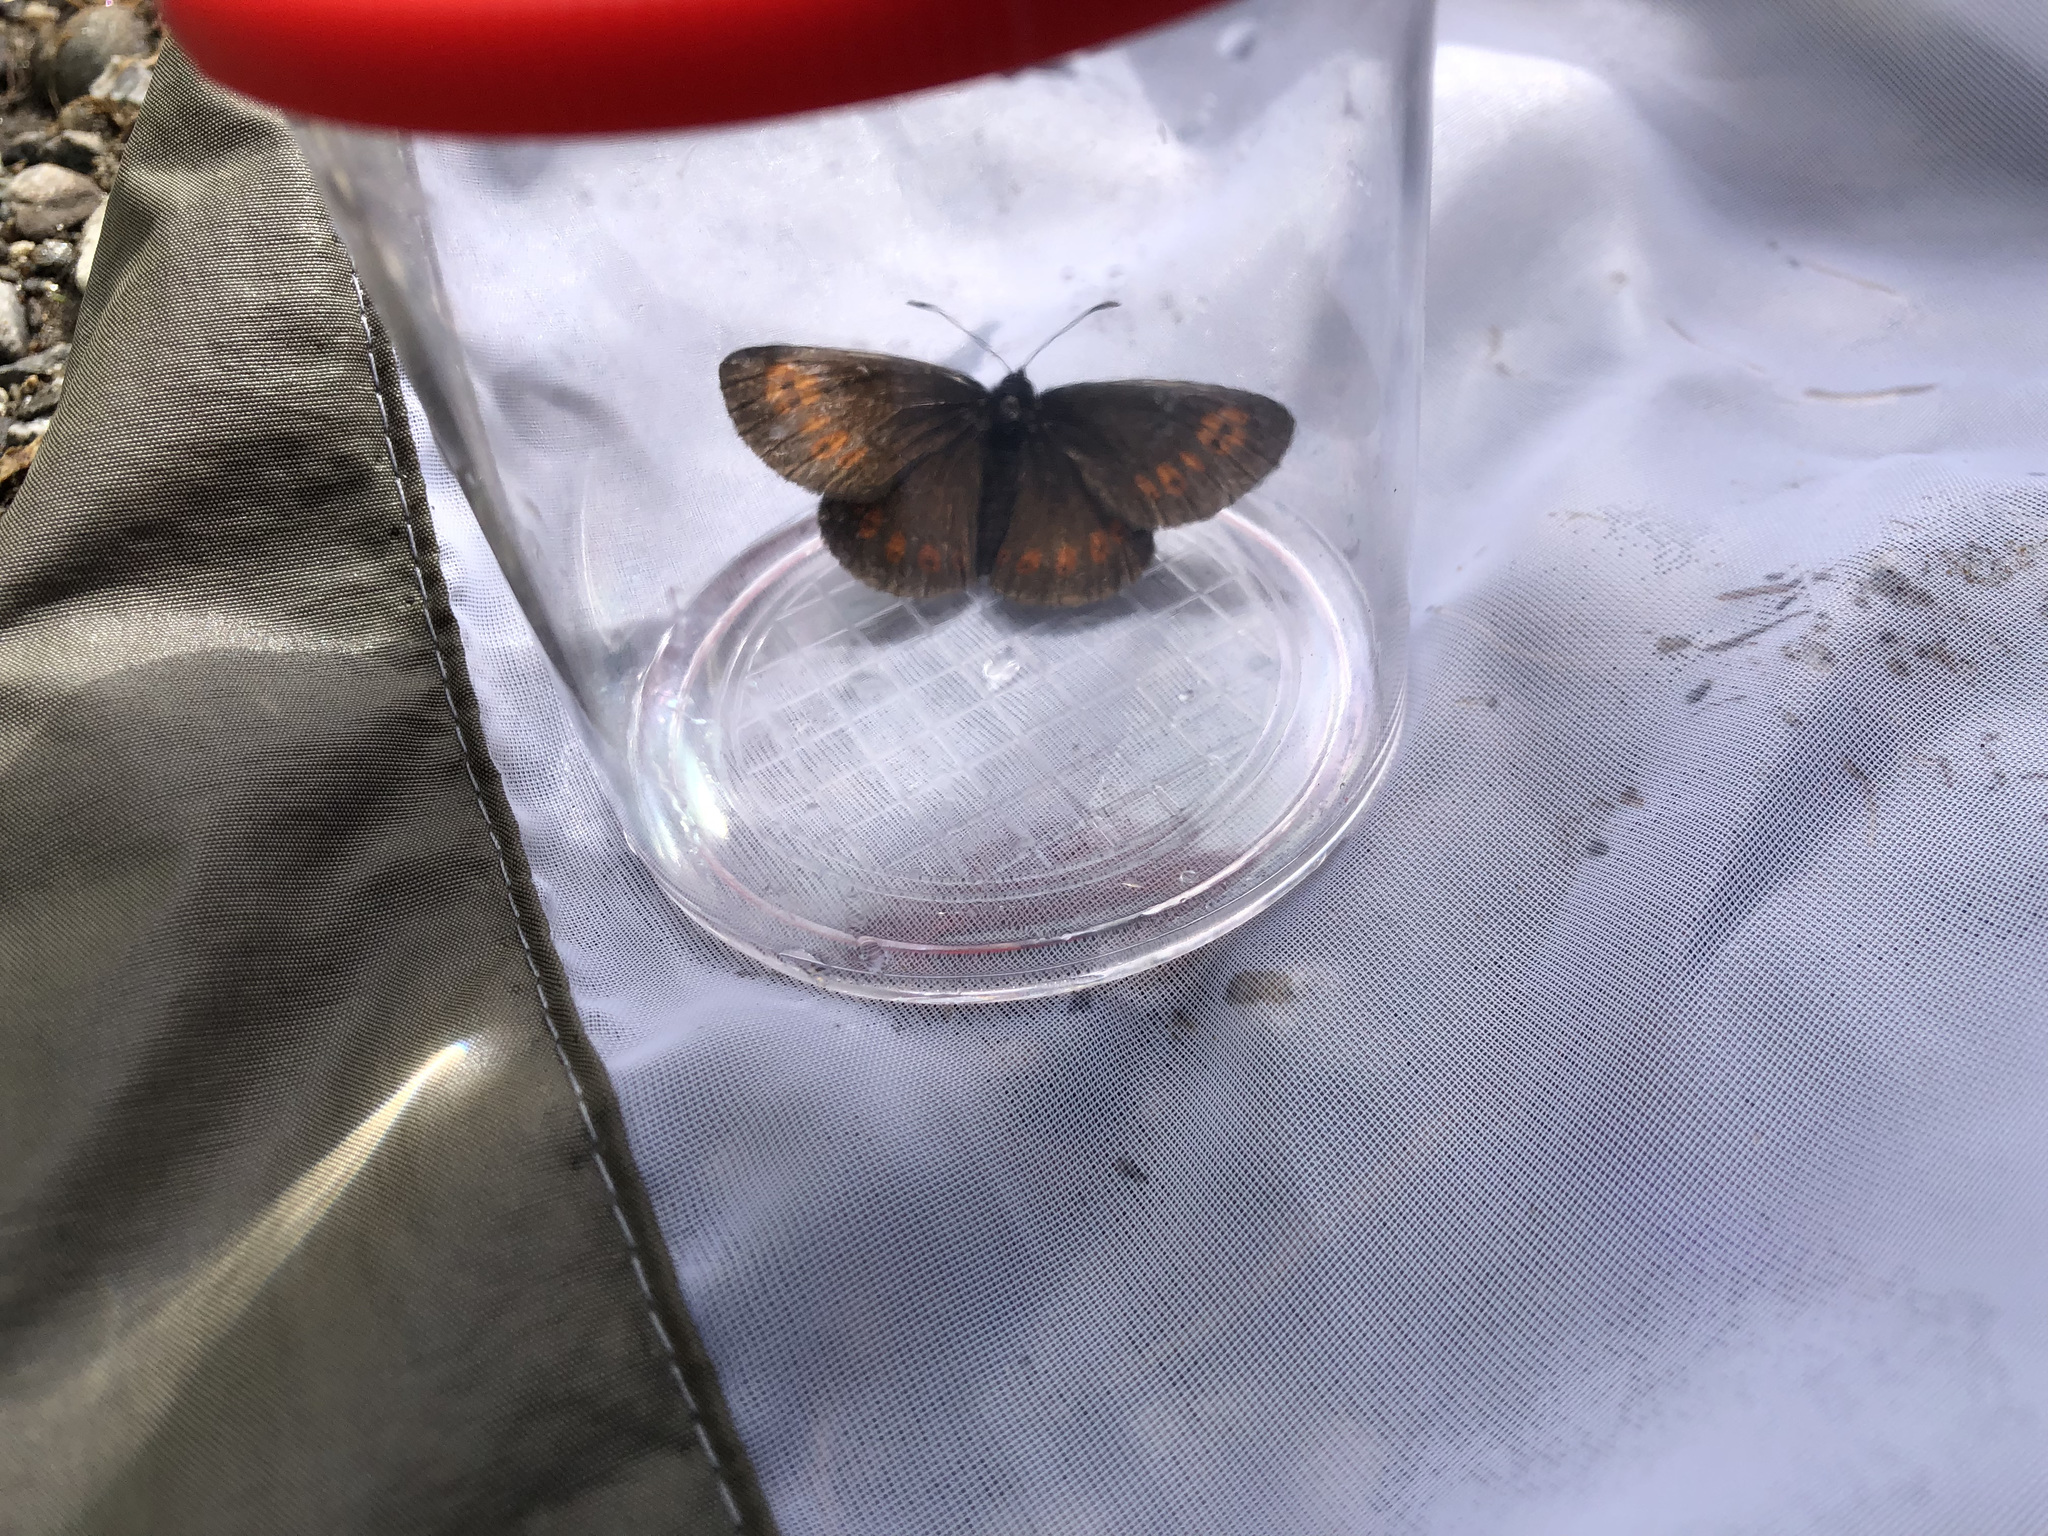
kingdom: Animalia
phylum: Arthropoda
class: Insecta
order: Lepidoptera
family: Nymphalidae
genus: Erebia
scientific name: Erebia alberganus
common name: Almond-eyed ringlet
